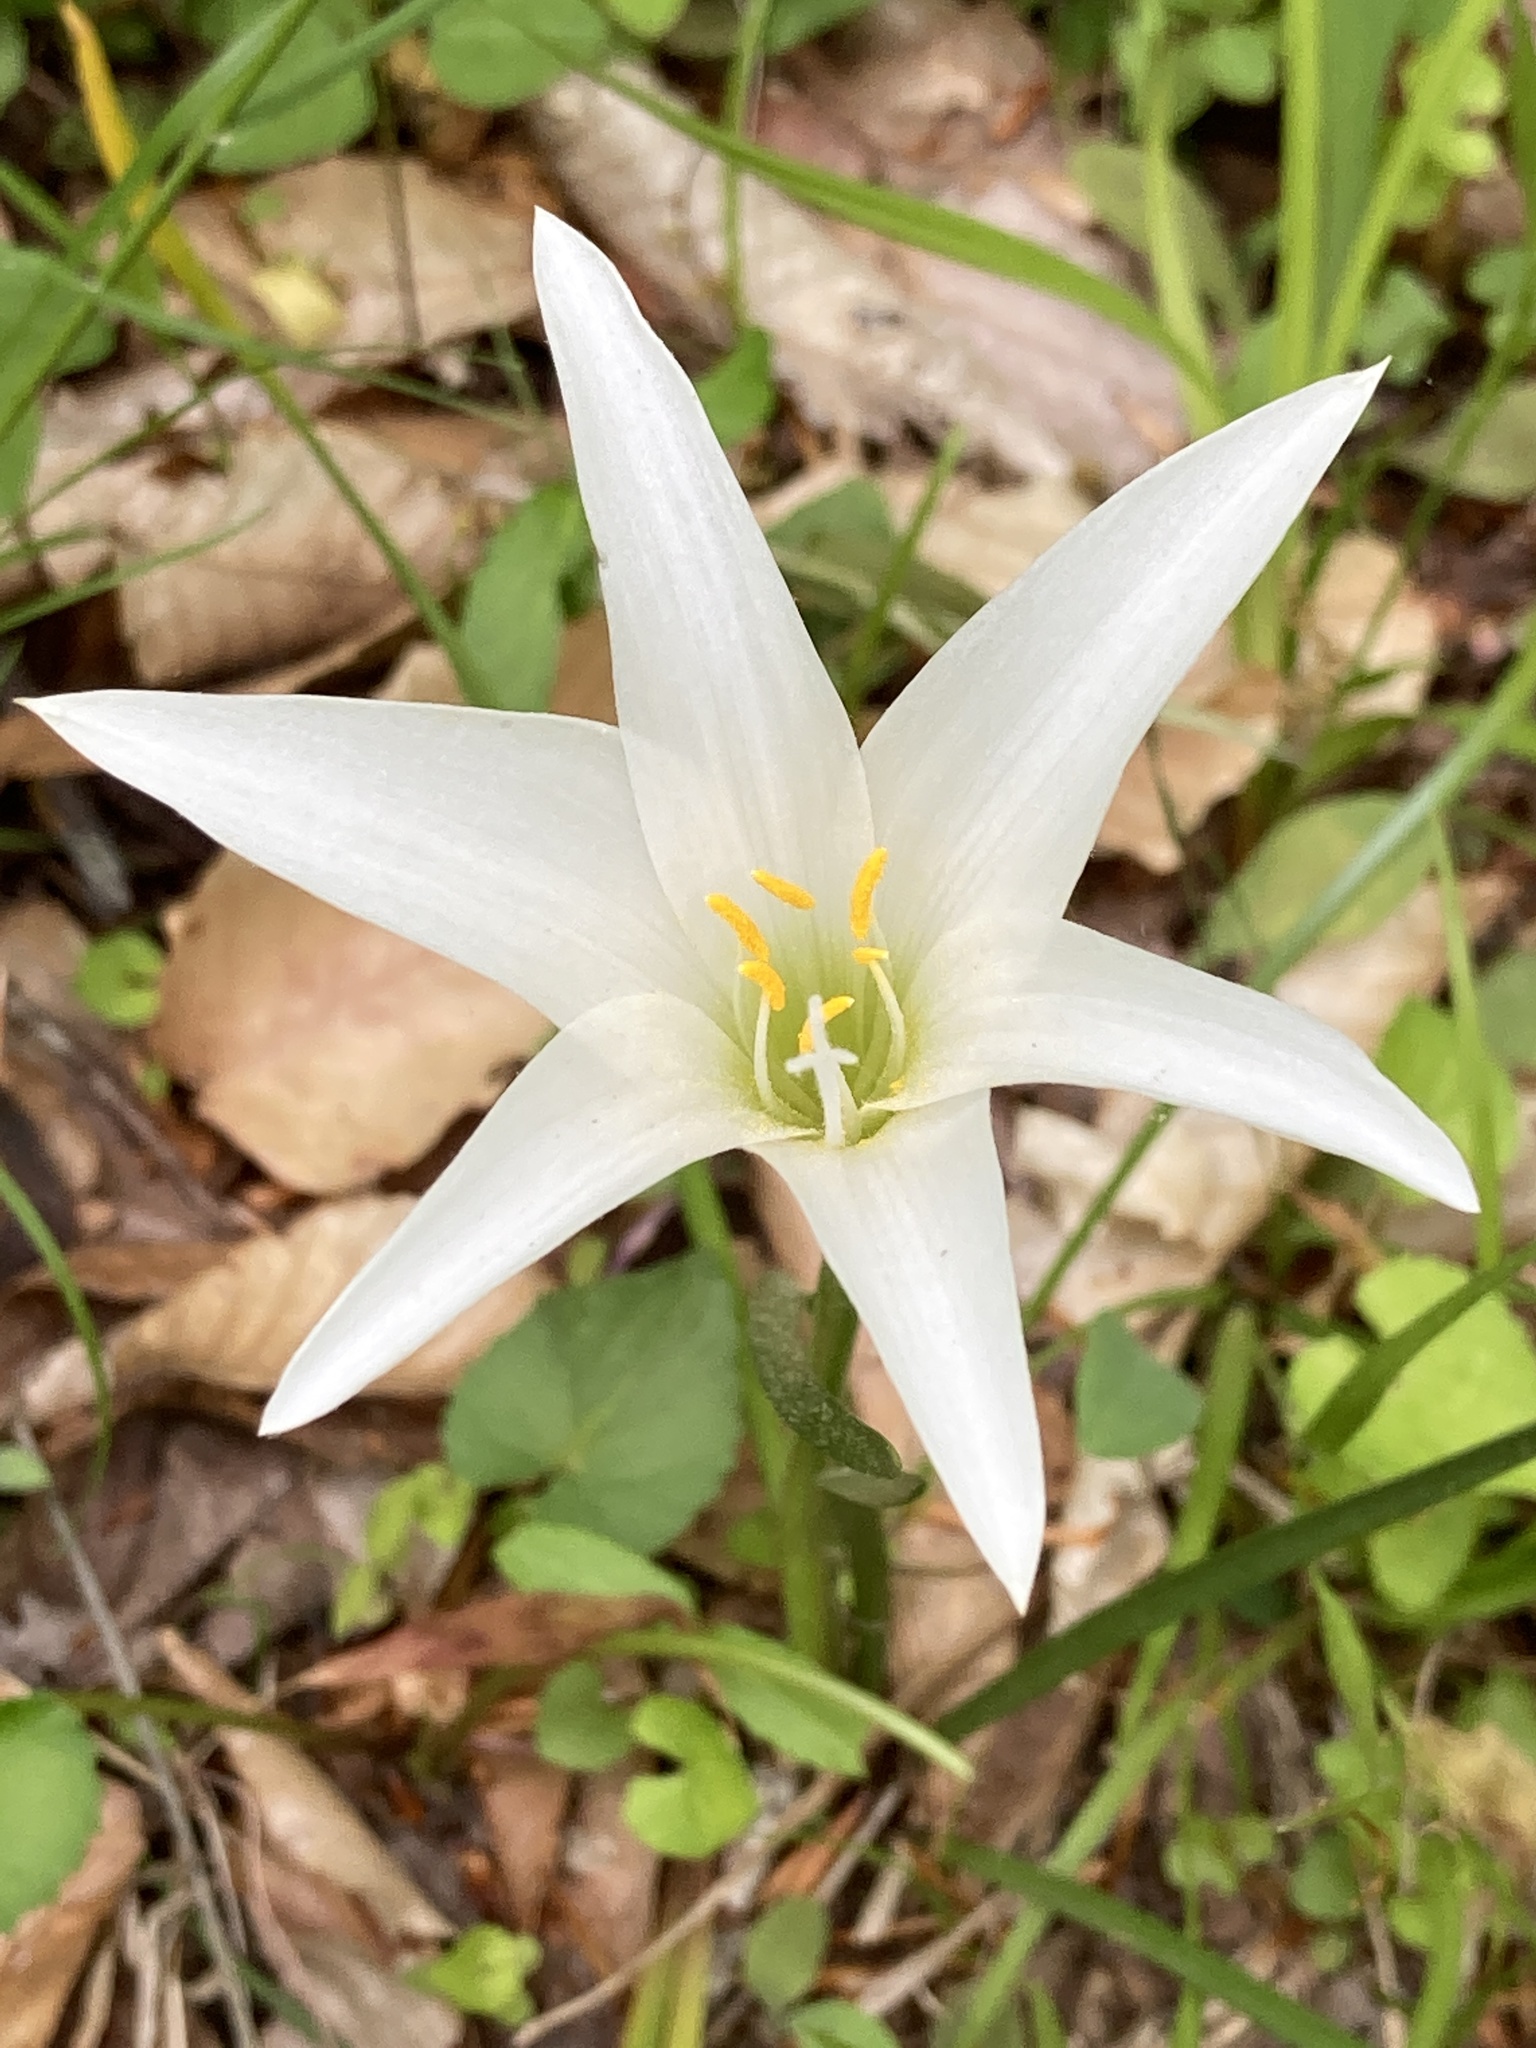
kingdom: Plantae
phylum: Tracheophyta
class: Liliopsida
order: Asparagales
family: Amaryllidaceae
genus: Zephyranthes
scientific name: Zephyranthes atamasco
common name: Atamasco lily
